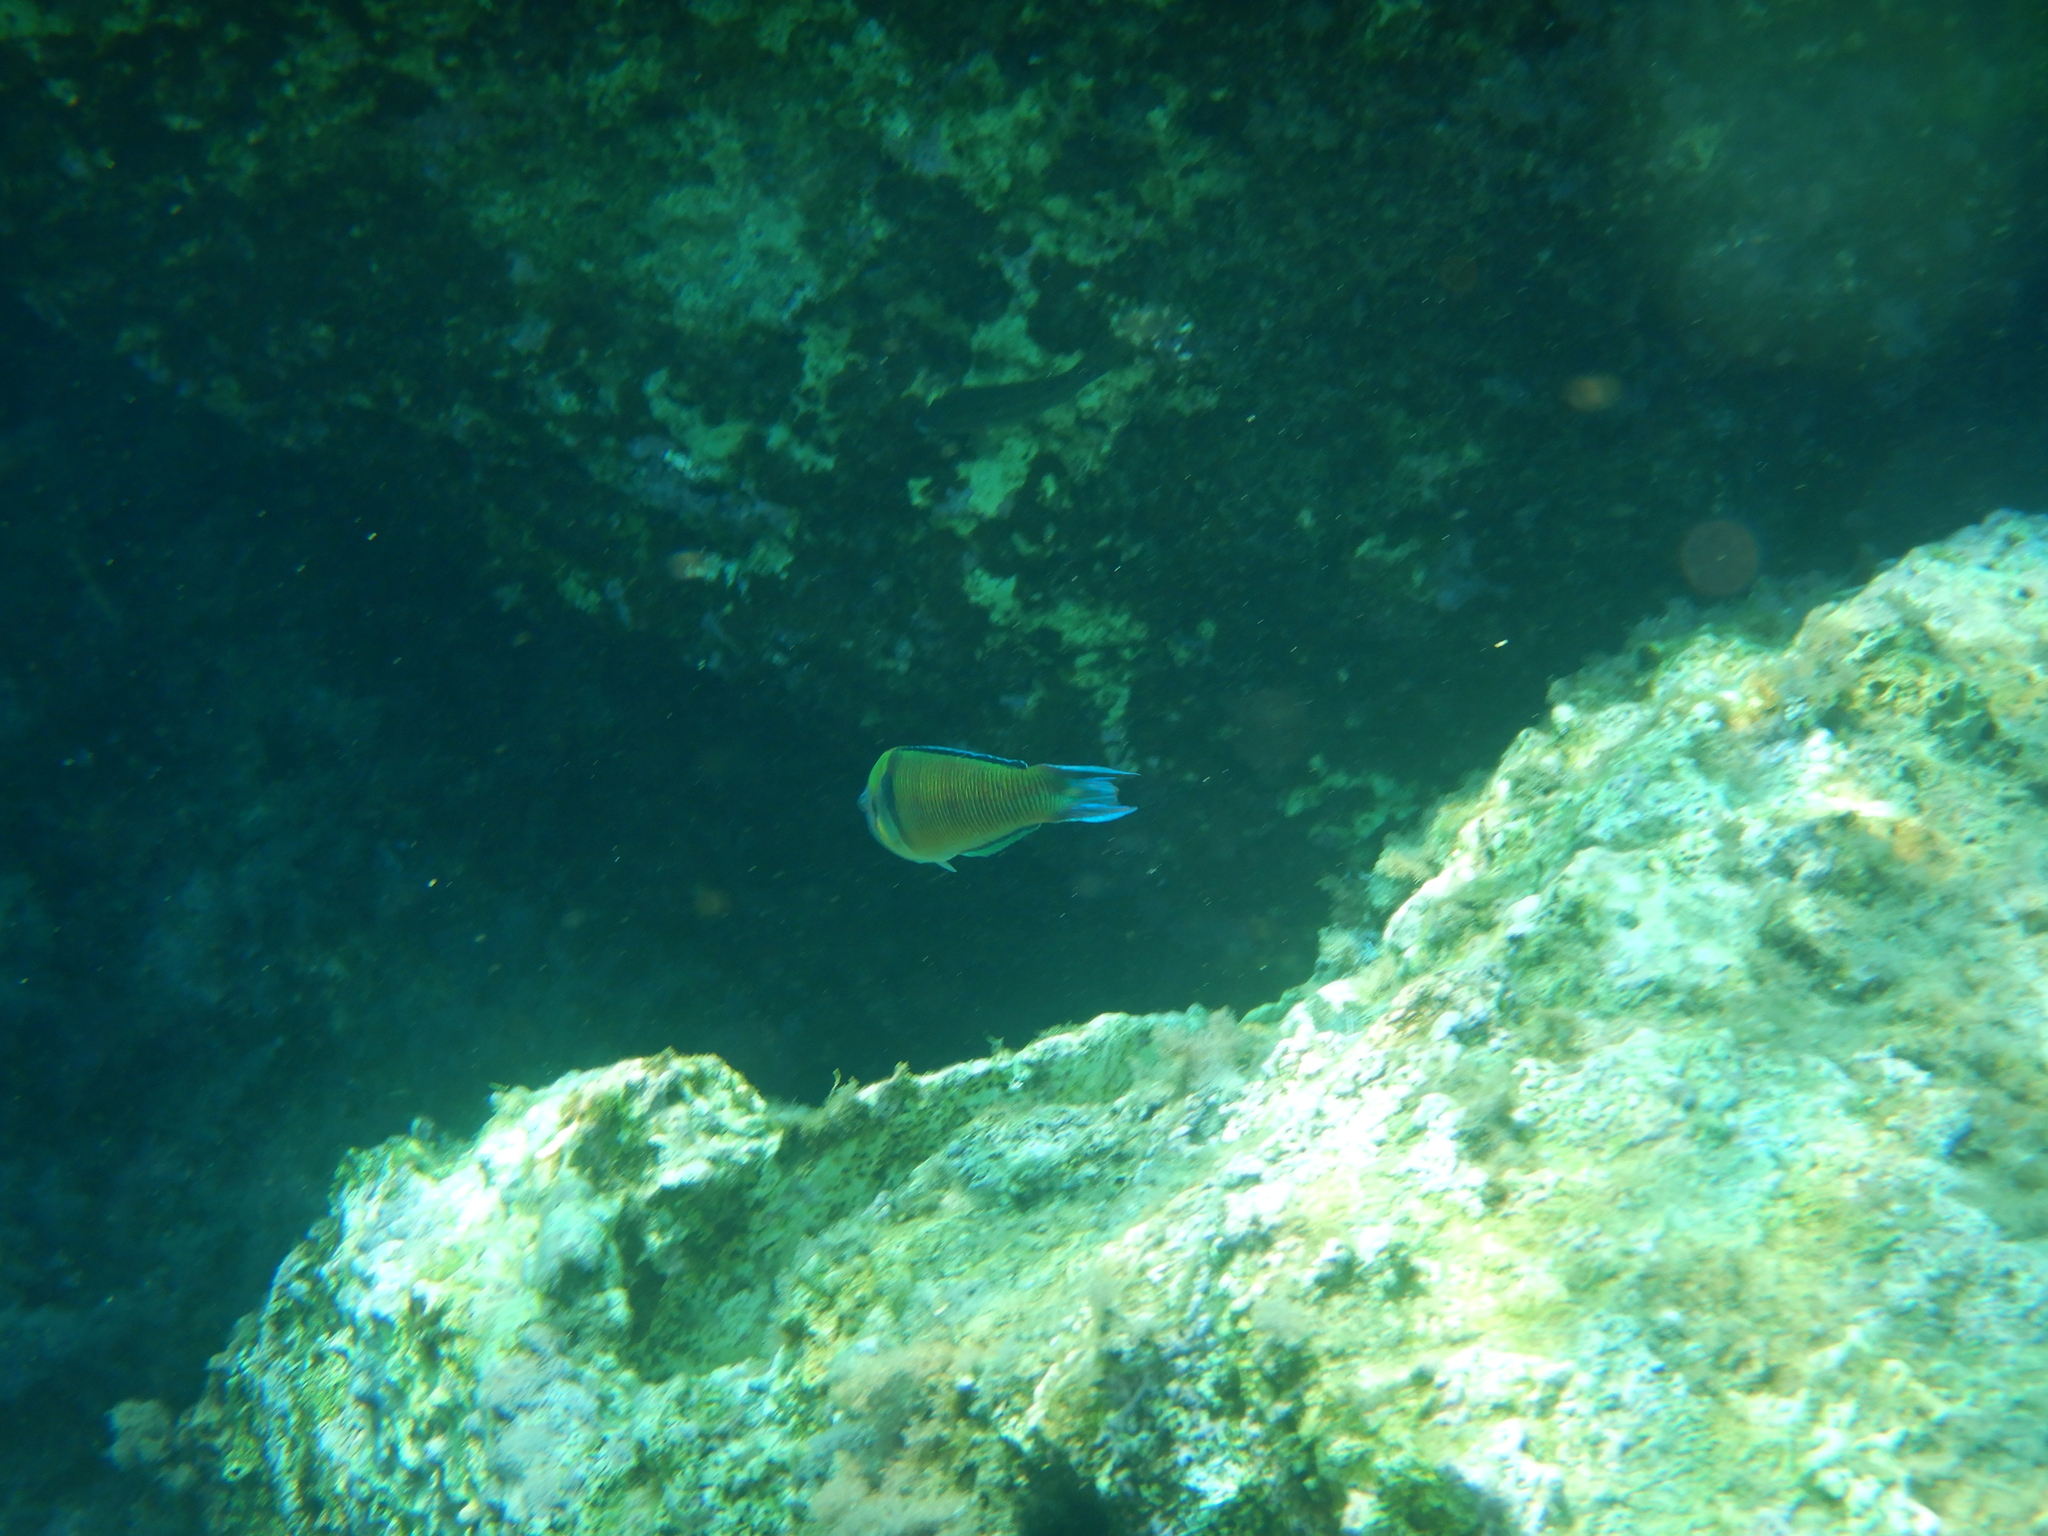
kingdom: Animalia
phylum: Chordata
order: Perciformes
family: Labridae
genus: Thalassoma
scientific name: Thalassoma pavo
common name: Ornate wrasse
